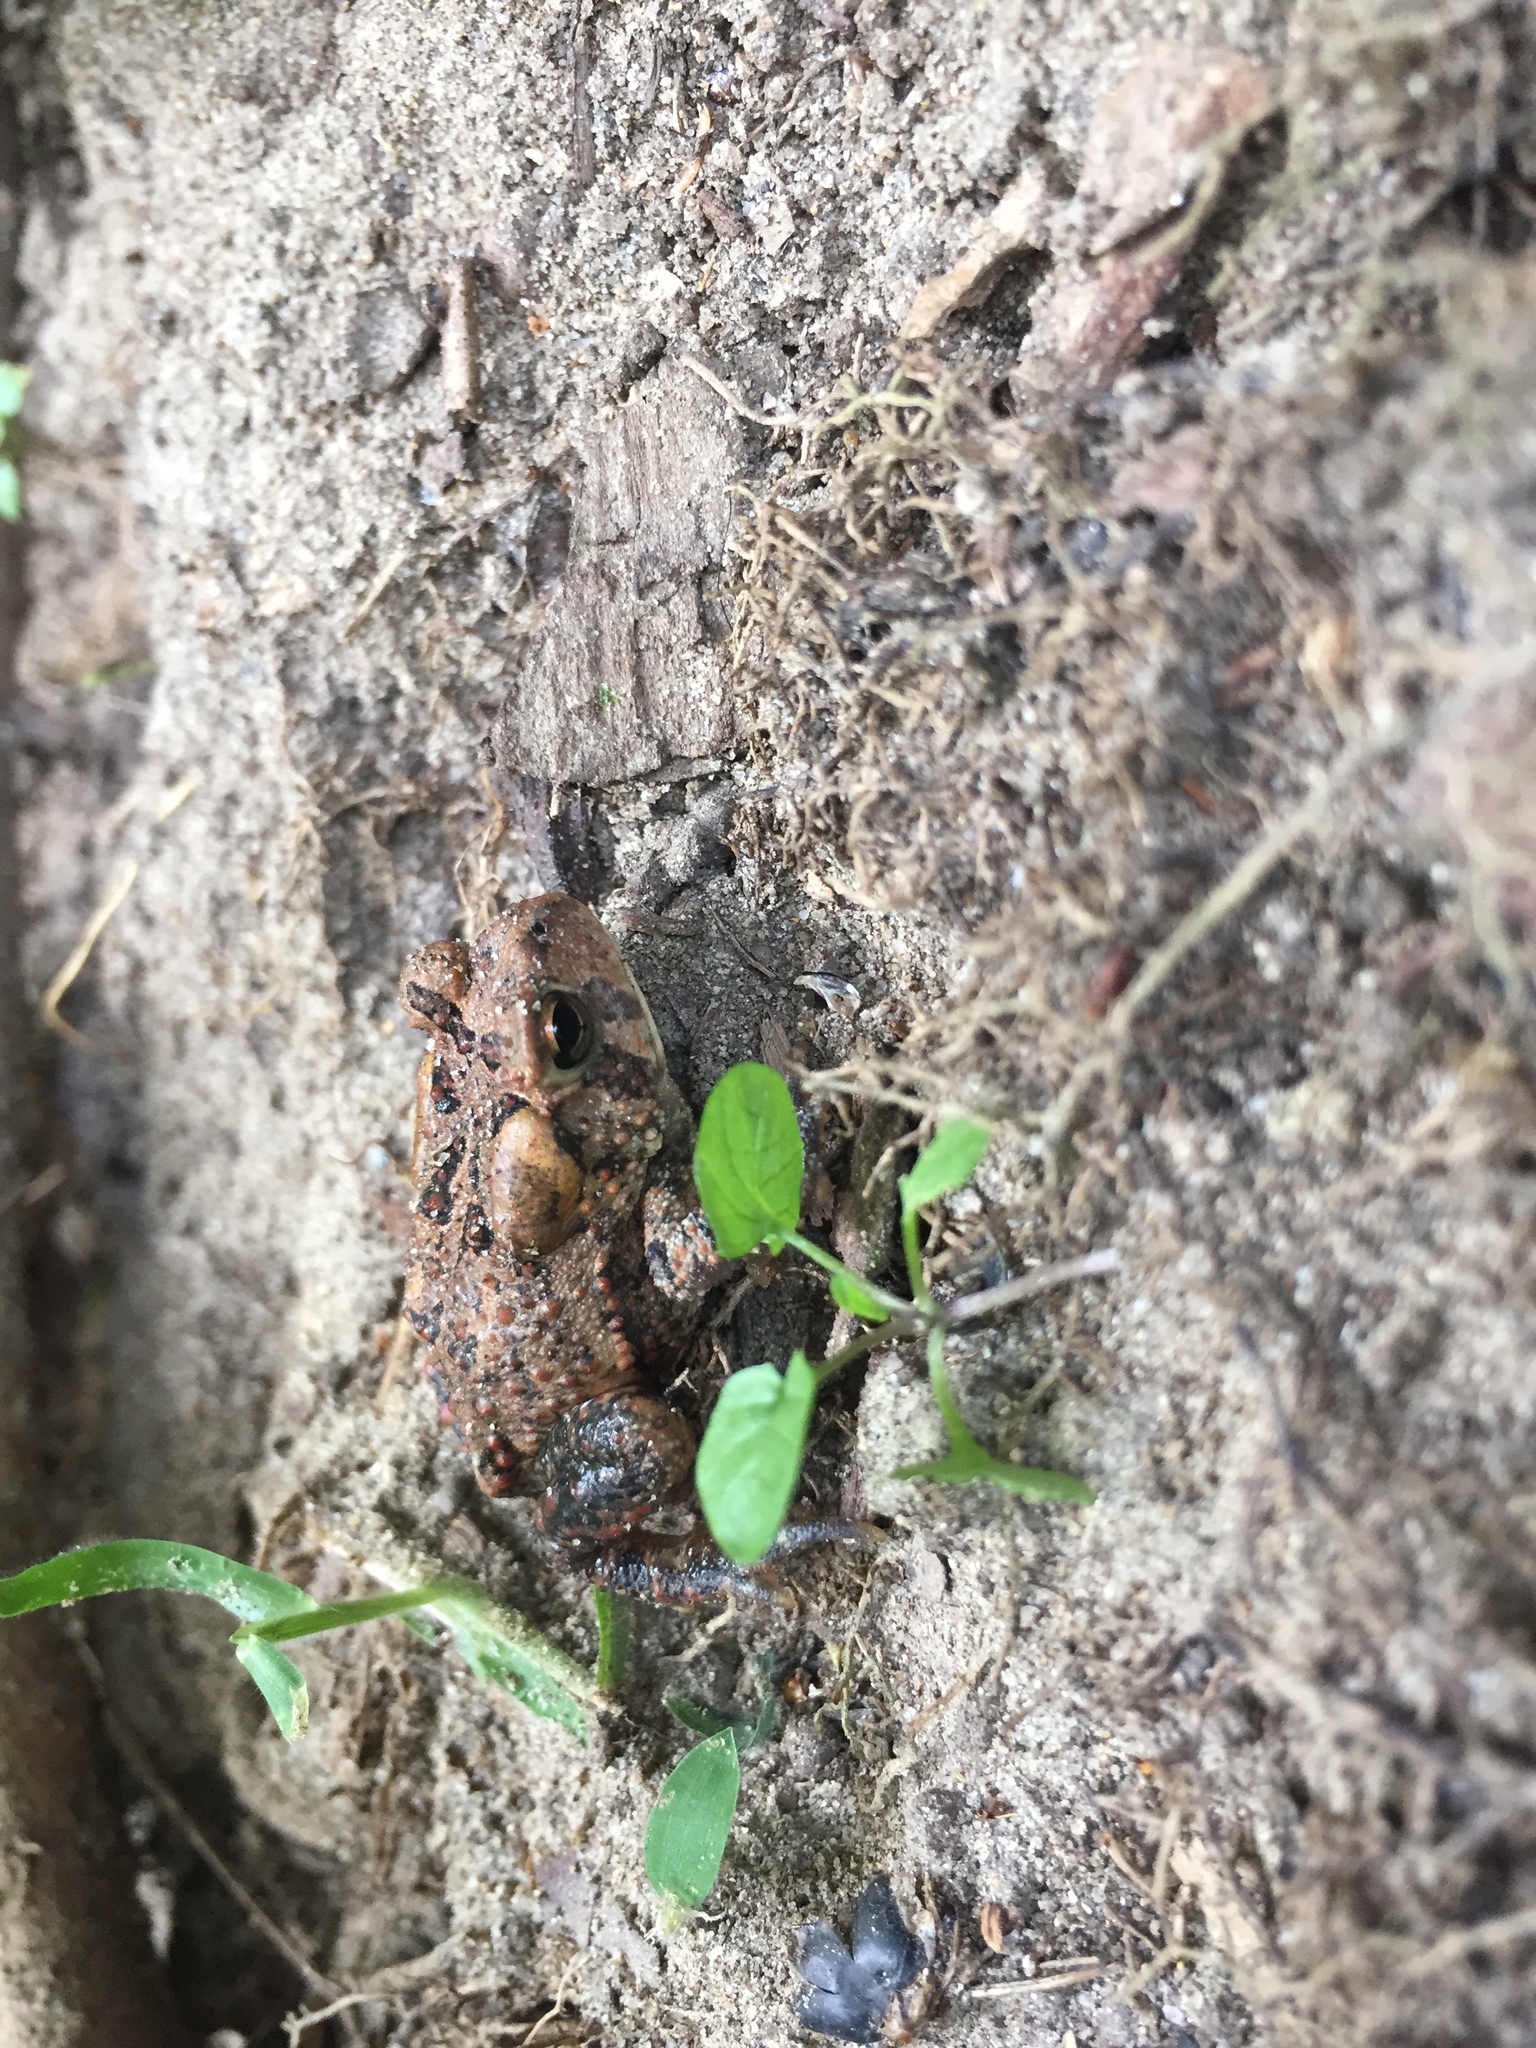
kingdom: Animalia
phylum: Chordata
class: Amphibia
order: Anura
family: Bufonidae
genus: Anaxyrus
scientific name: Anaxyrus fowleri
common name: Fowler's toad
